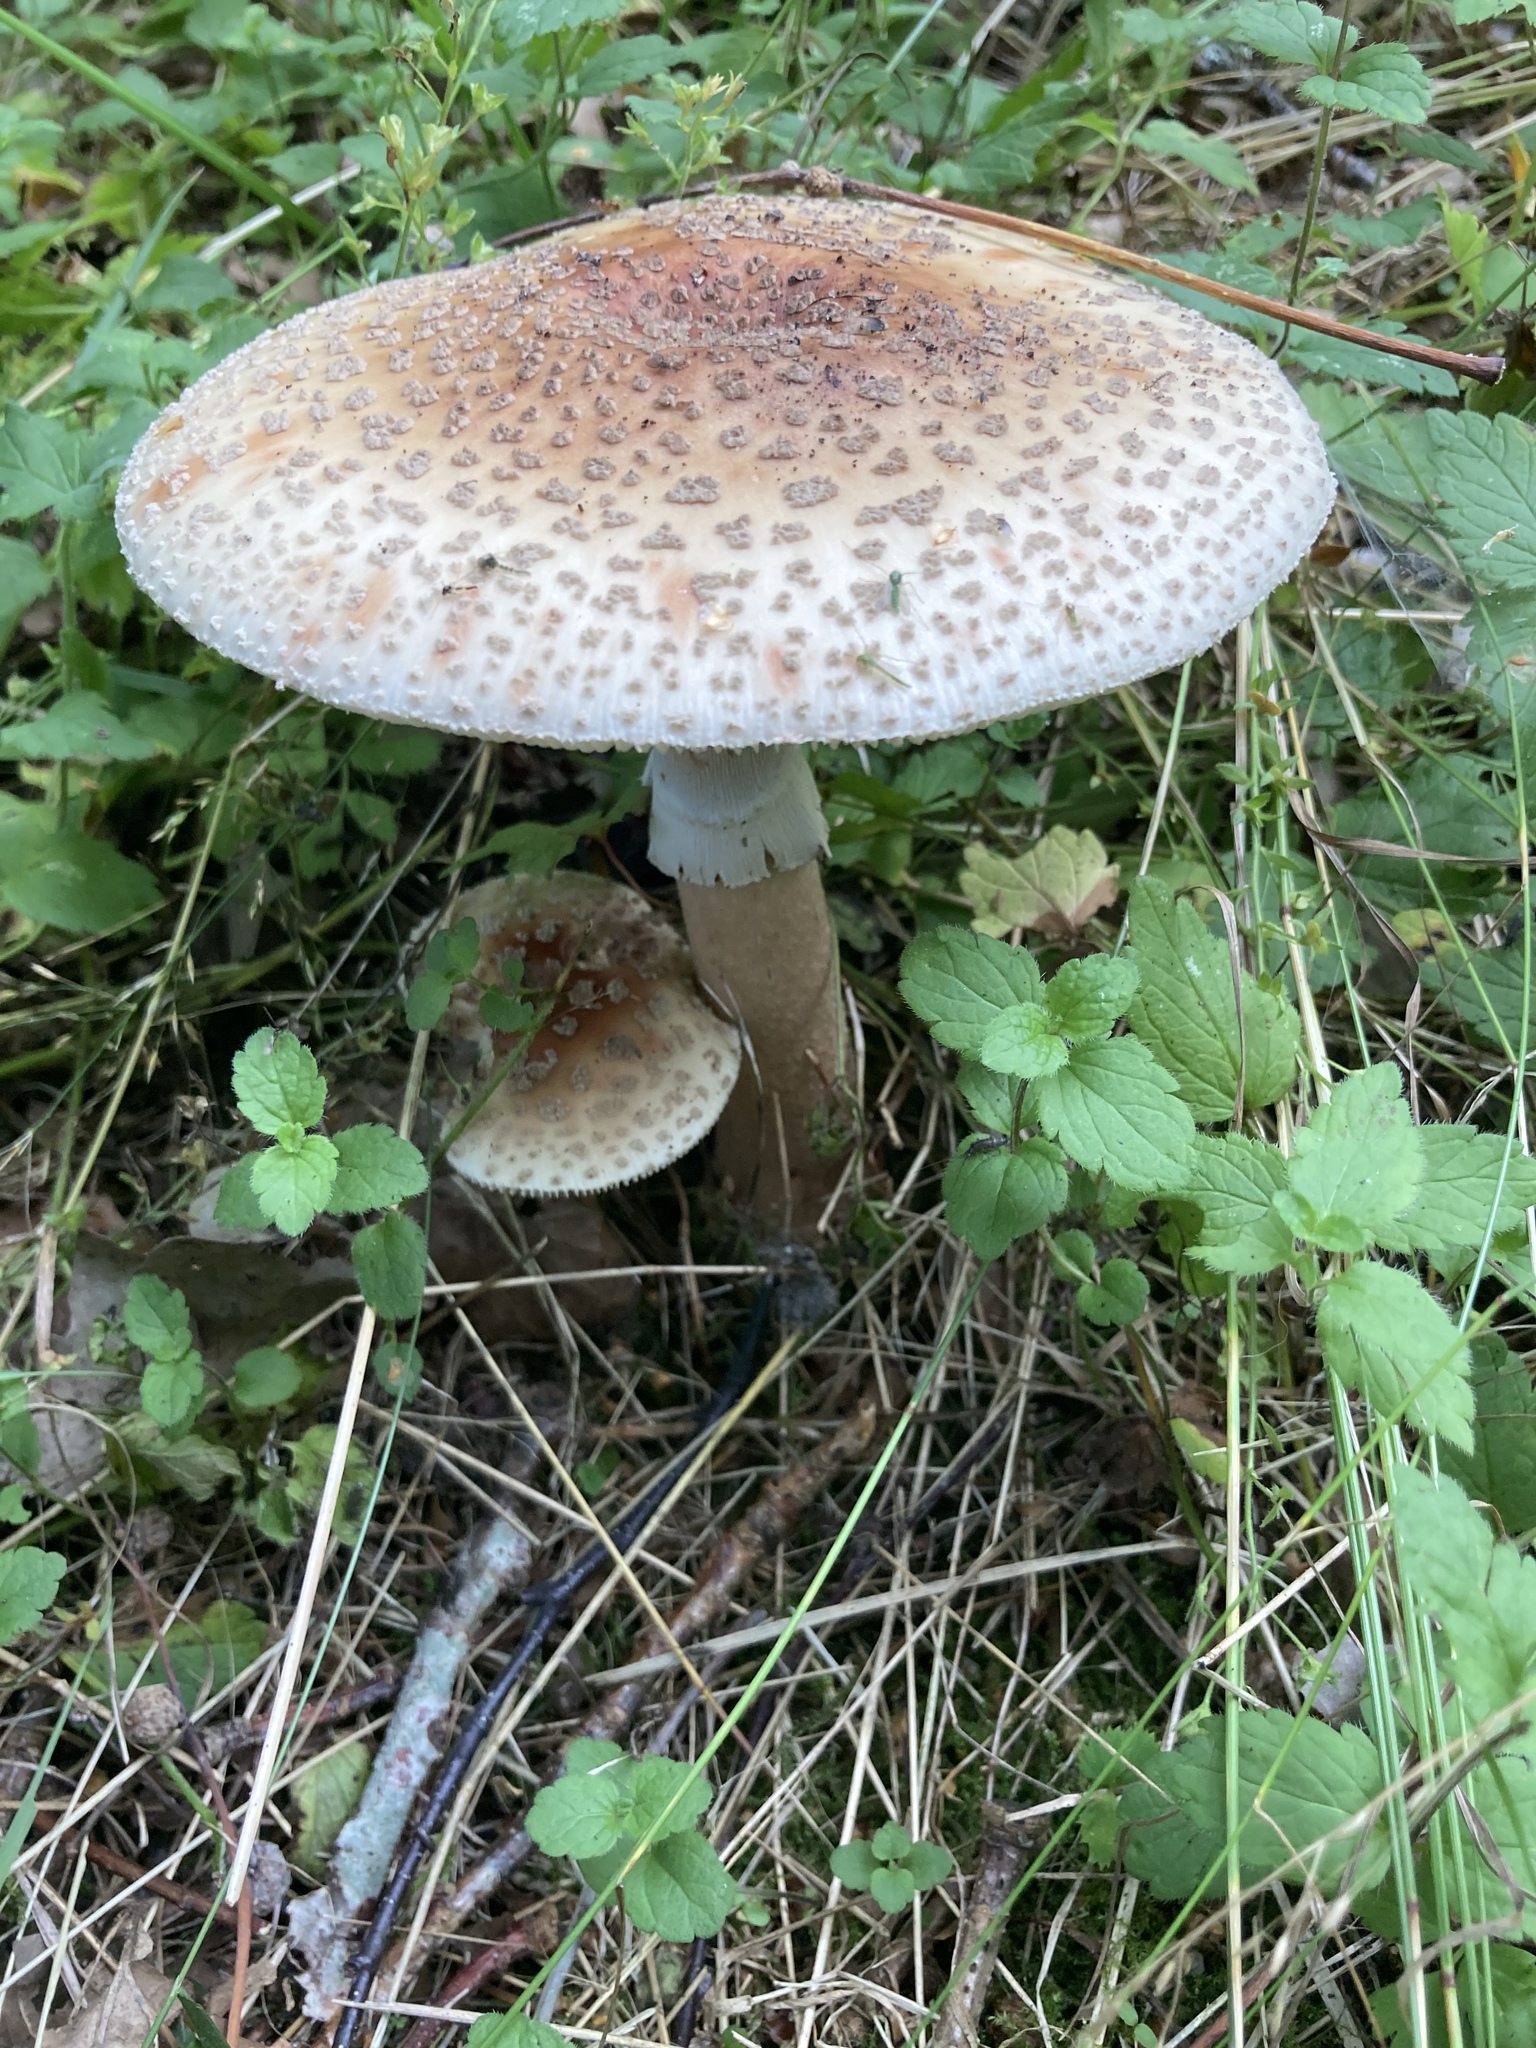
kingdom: Fungi
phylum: Basidiomycota
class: Agaricomycetes
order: Agaricales
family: Amanitaceae
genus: Amanita
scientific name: Amanita rubescens
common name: Blusher
